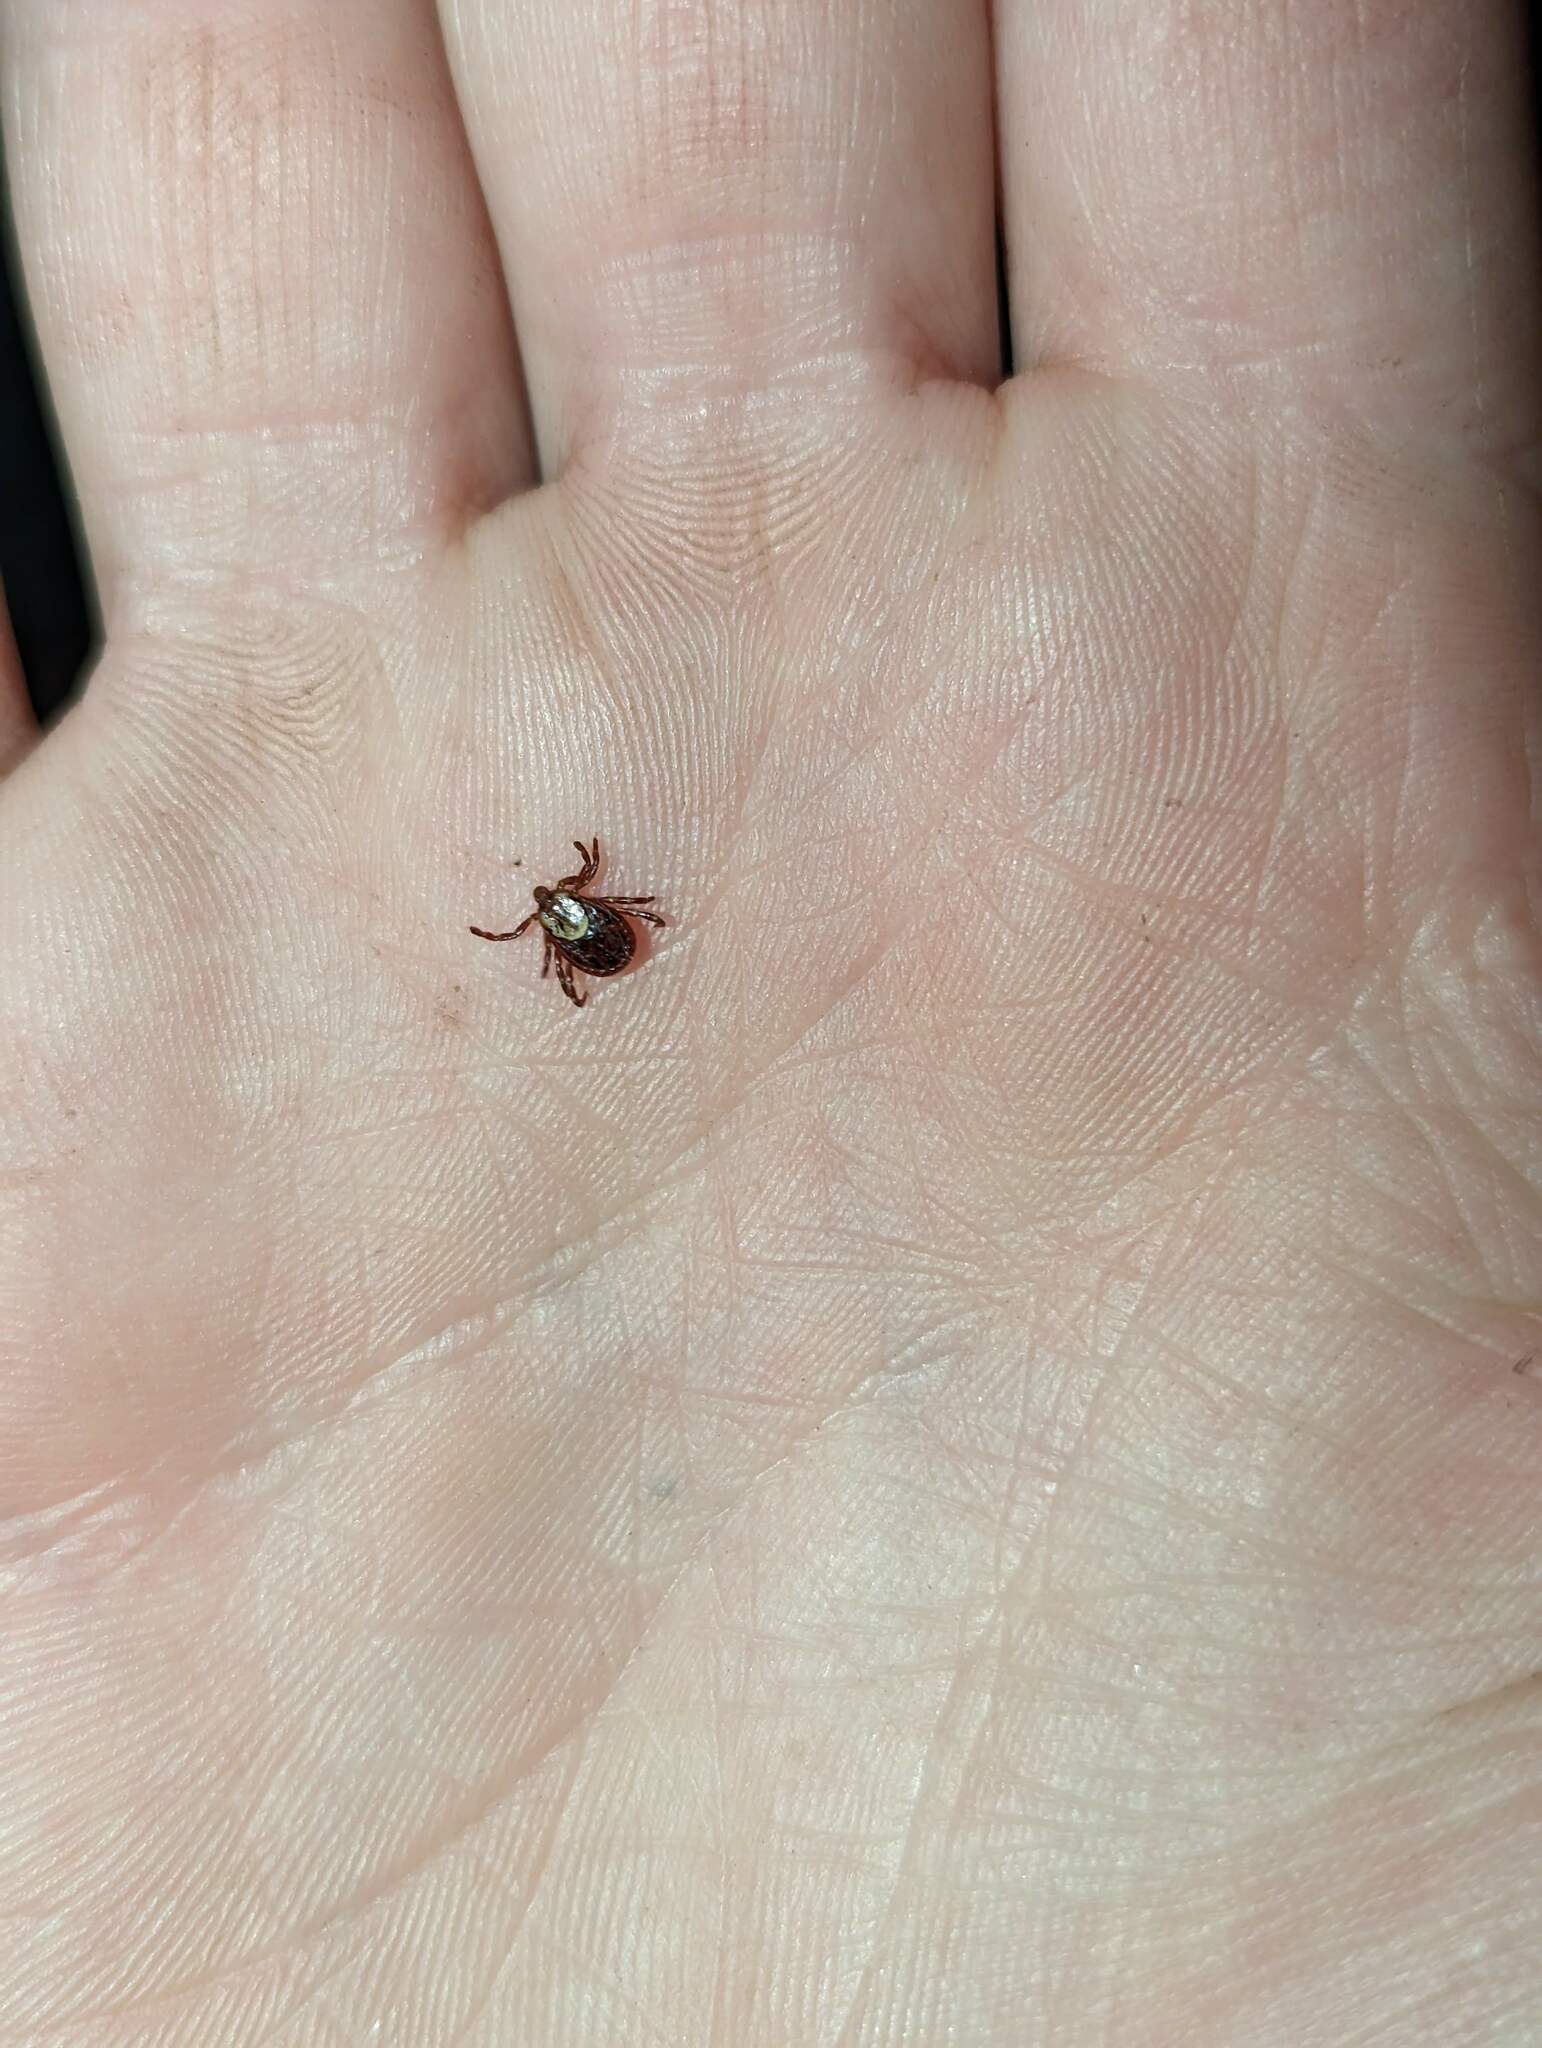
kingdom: Animalia
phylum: Arthropoda
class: Arachnida
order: Ixodida
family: Ixodidae
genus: Dermacentor
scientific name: Dermacentor variabilis
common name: American dog tick
